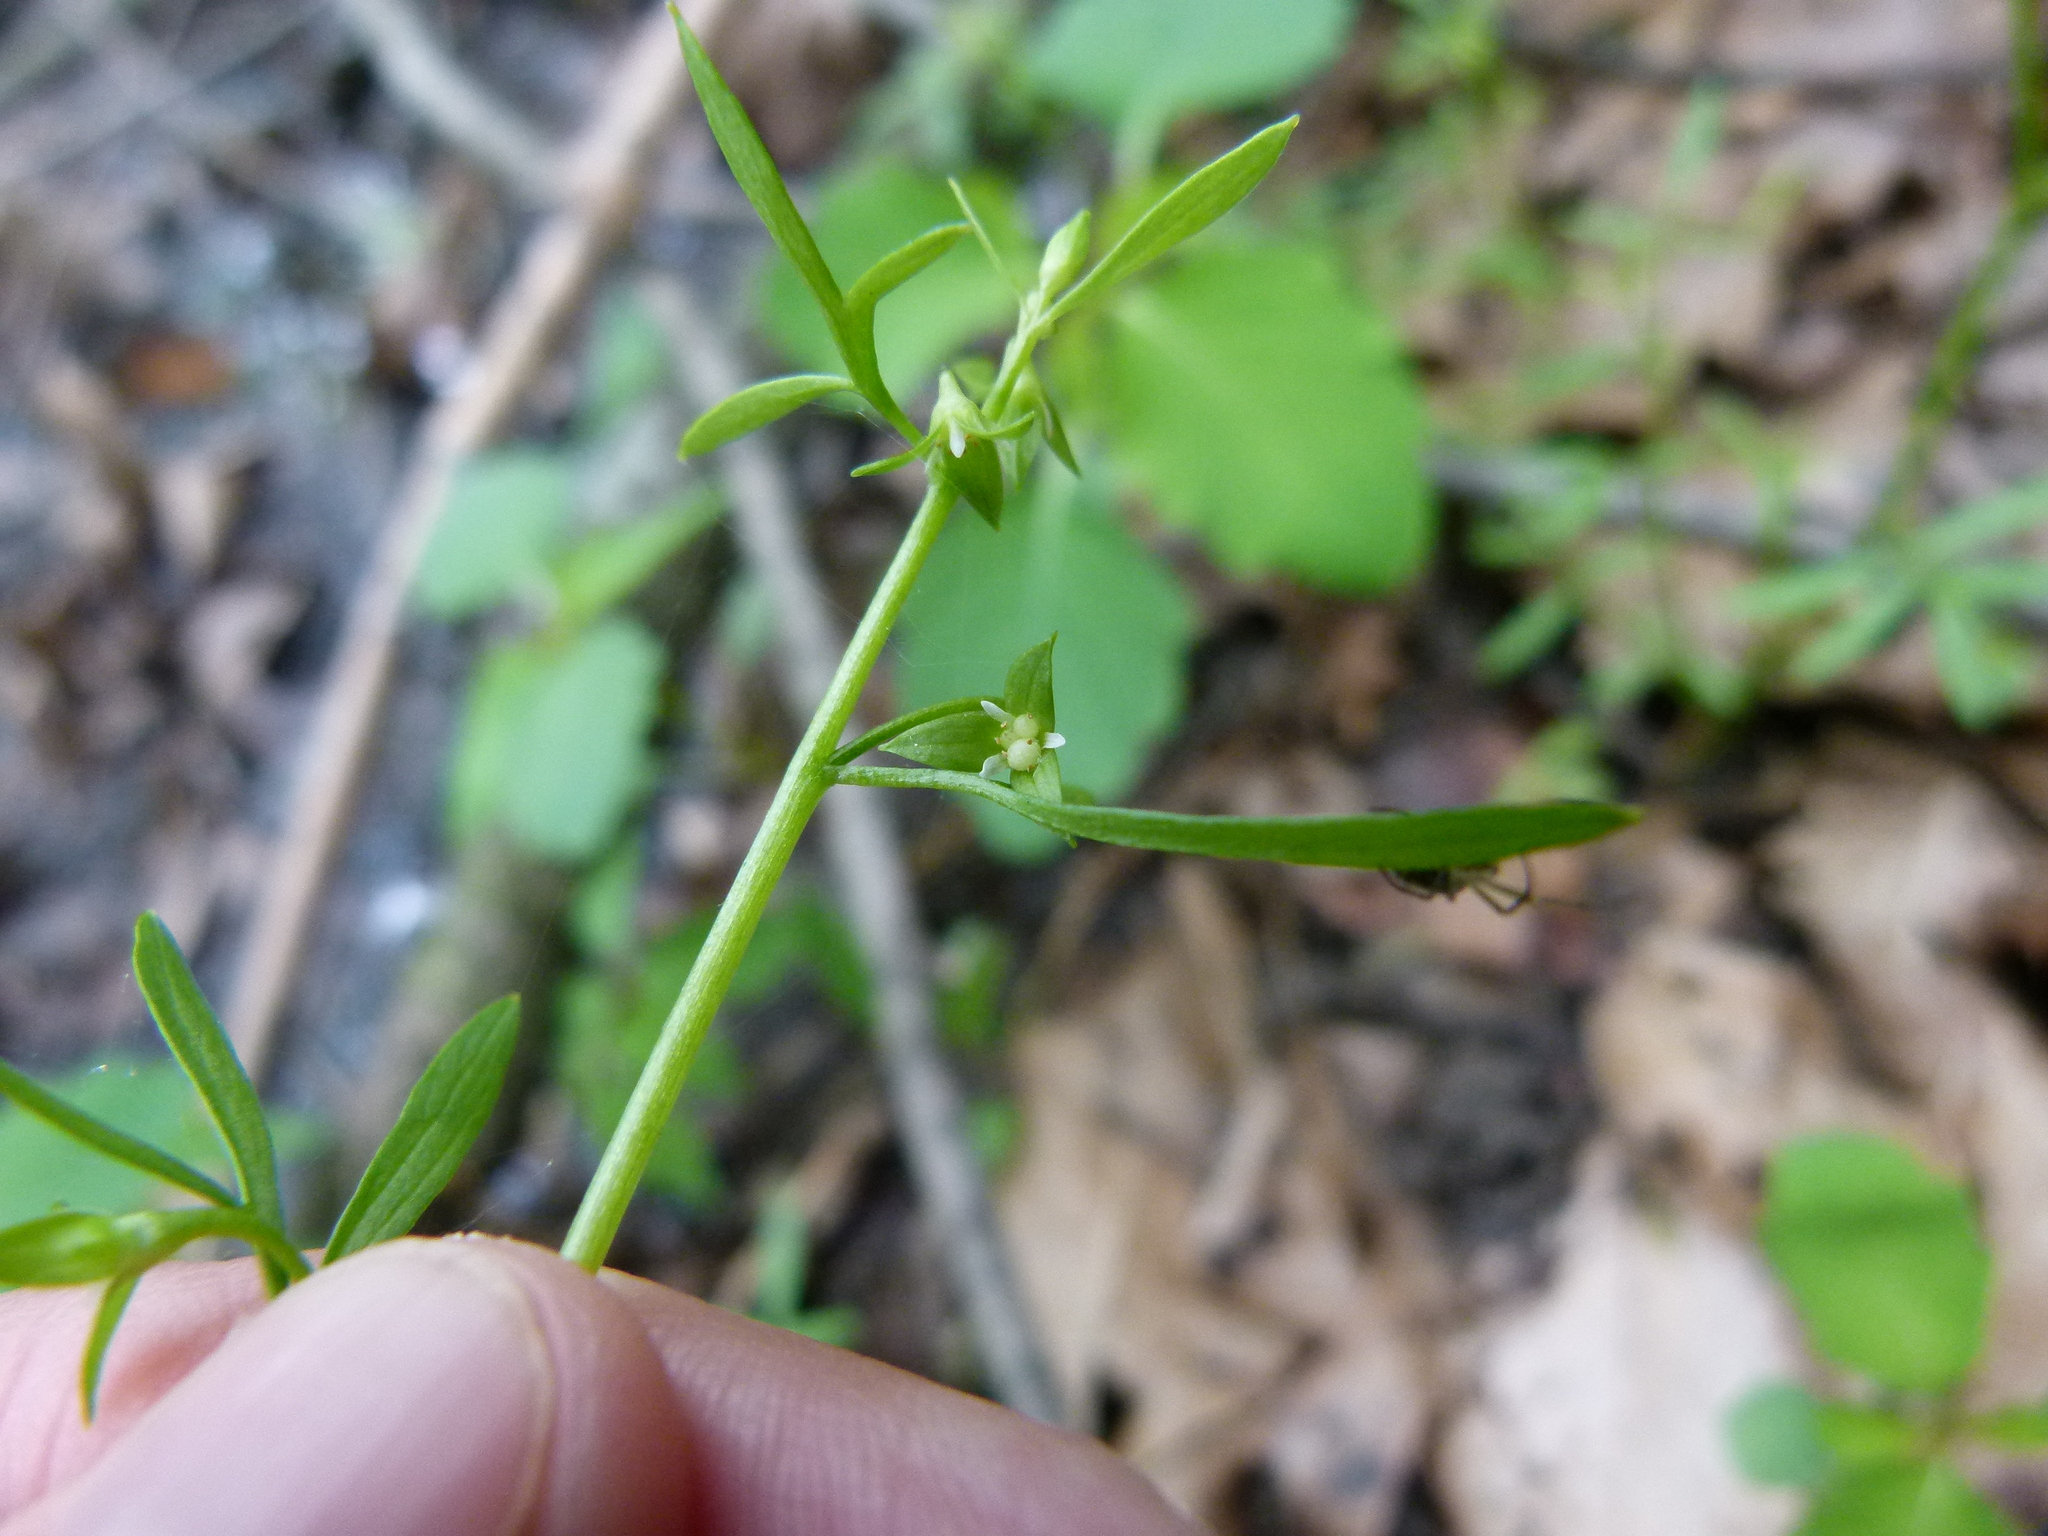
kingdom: Plantae
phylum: Tracheophyta
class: Magnoliopsida
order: Brassicales
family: Limnanthaceae
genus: Floerkea
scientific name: Floerkea proserpinacoides
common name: False mermaid
